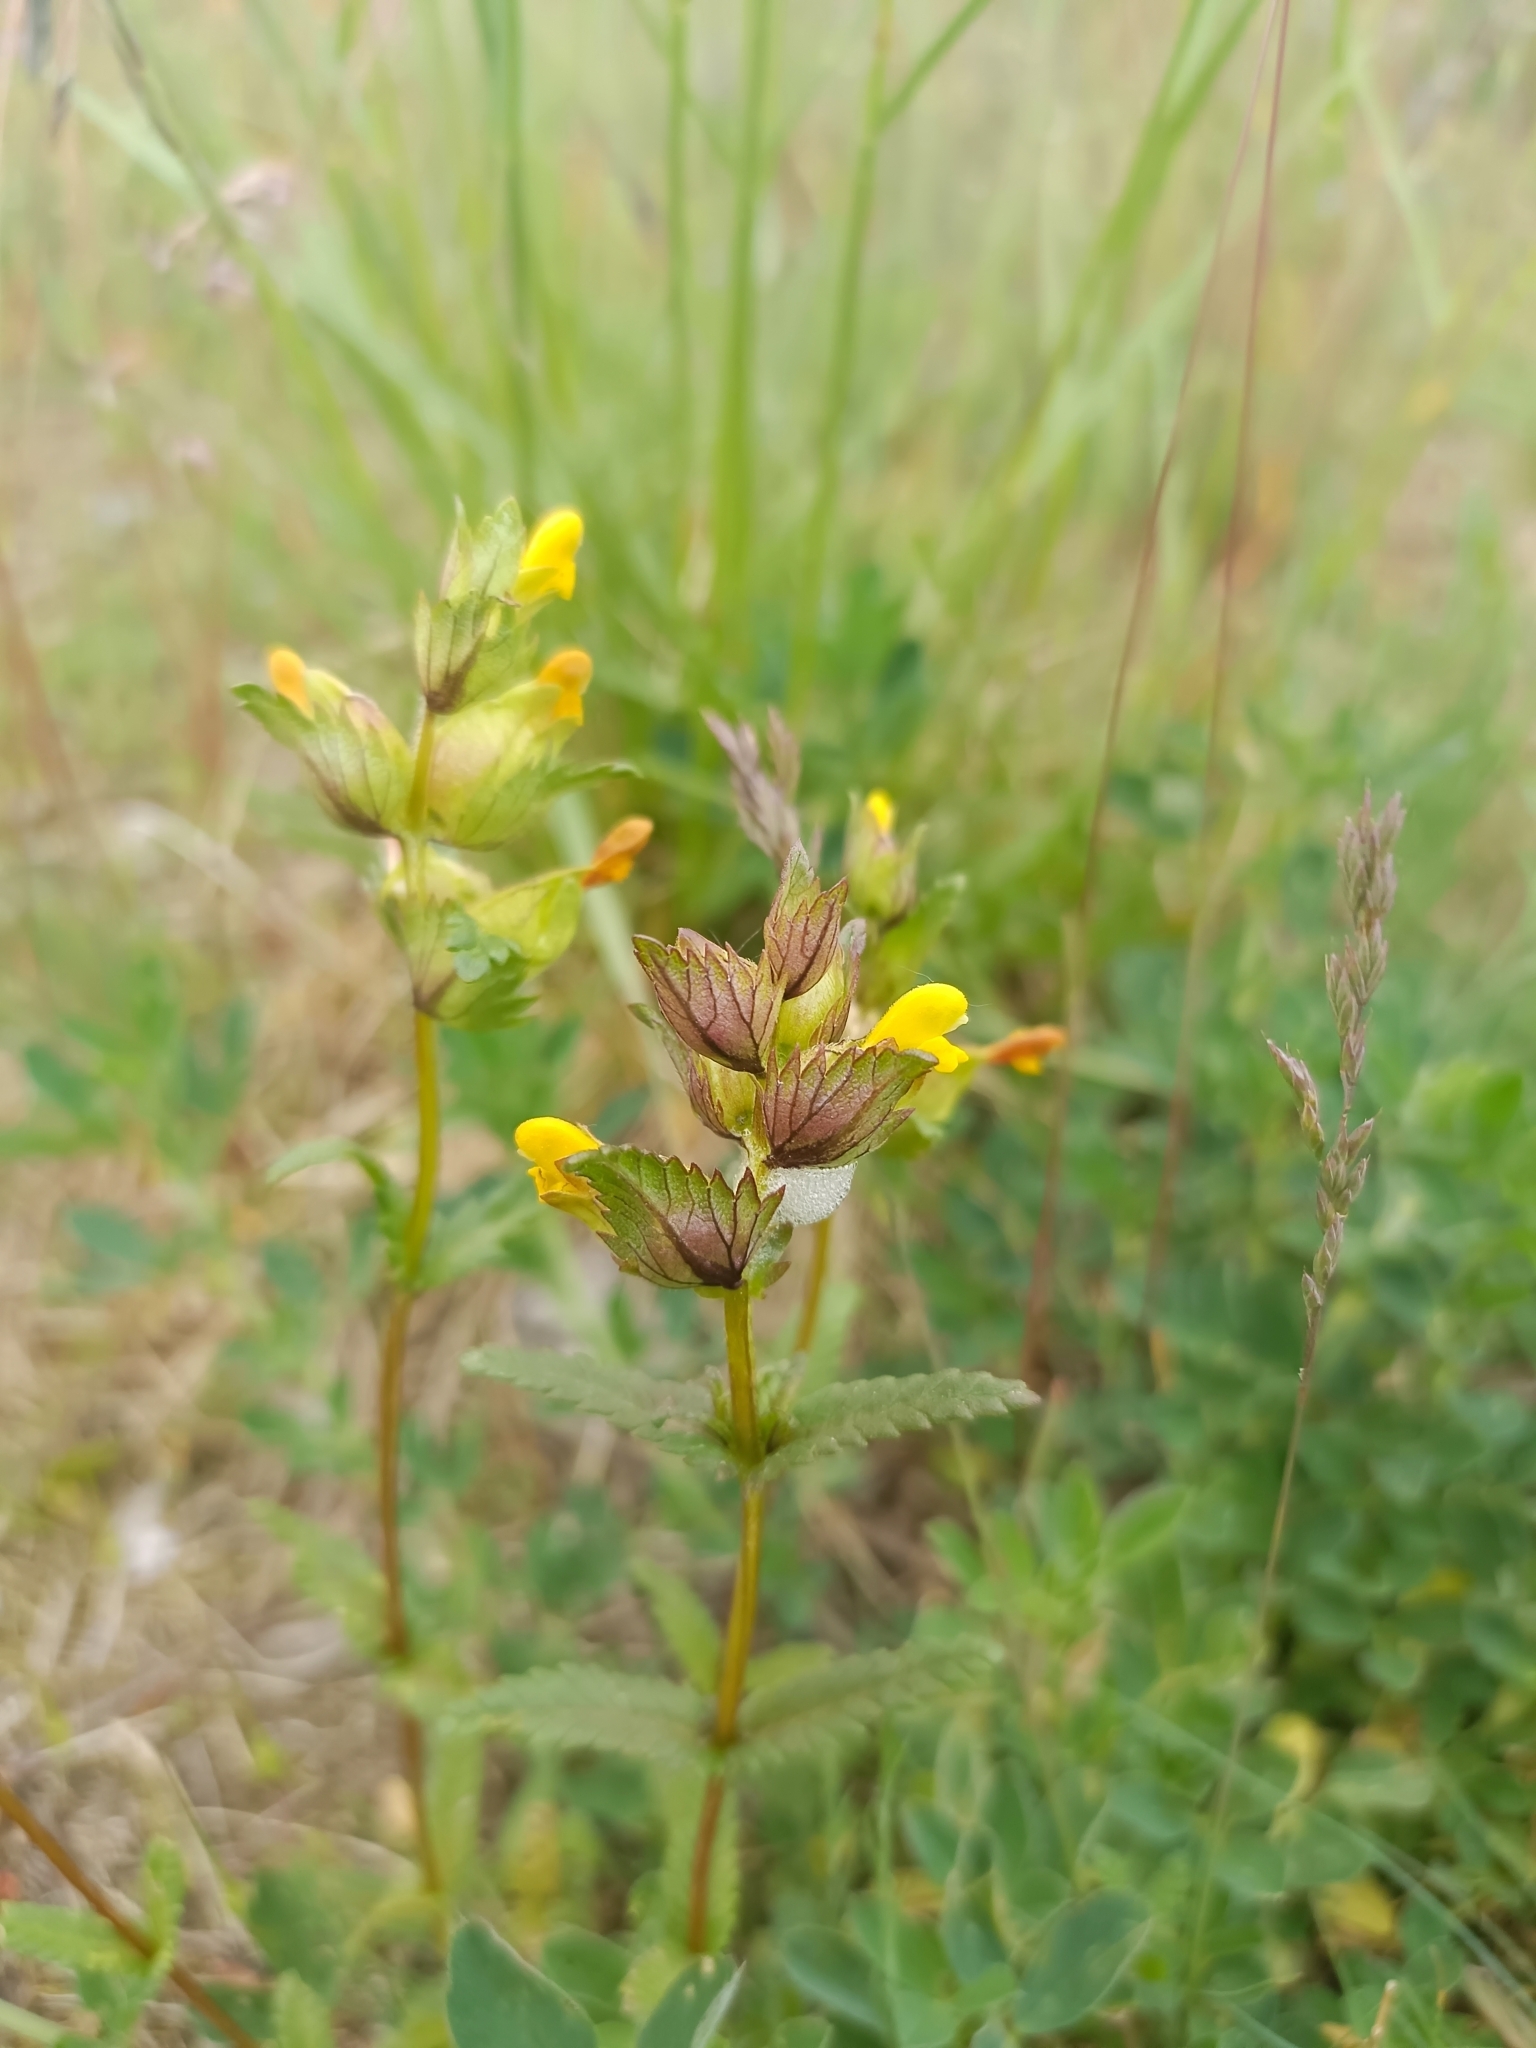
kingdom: Plantae
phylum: Tracheophyta
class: Magnoliopsida
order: Lamiales
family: Orobanchaceae
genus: Rhinanthus
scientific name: Rhinanthus minor
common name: Yellow-rattle
